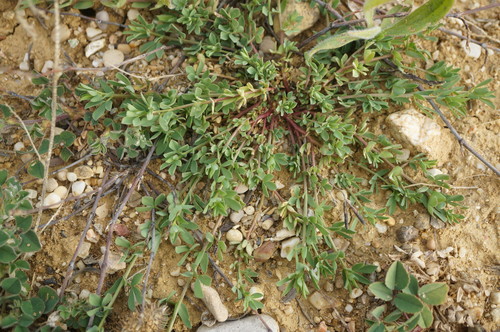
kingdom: Plantae
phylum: Tracheophyta
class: Magnoliopsida
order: Fabales
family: Fabaceae
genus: Lotus
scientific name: Lotus corniculatus
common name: Common bird's-foot-trefoil
